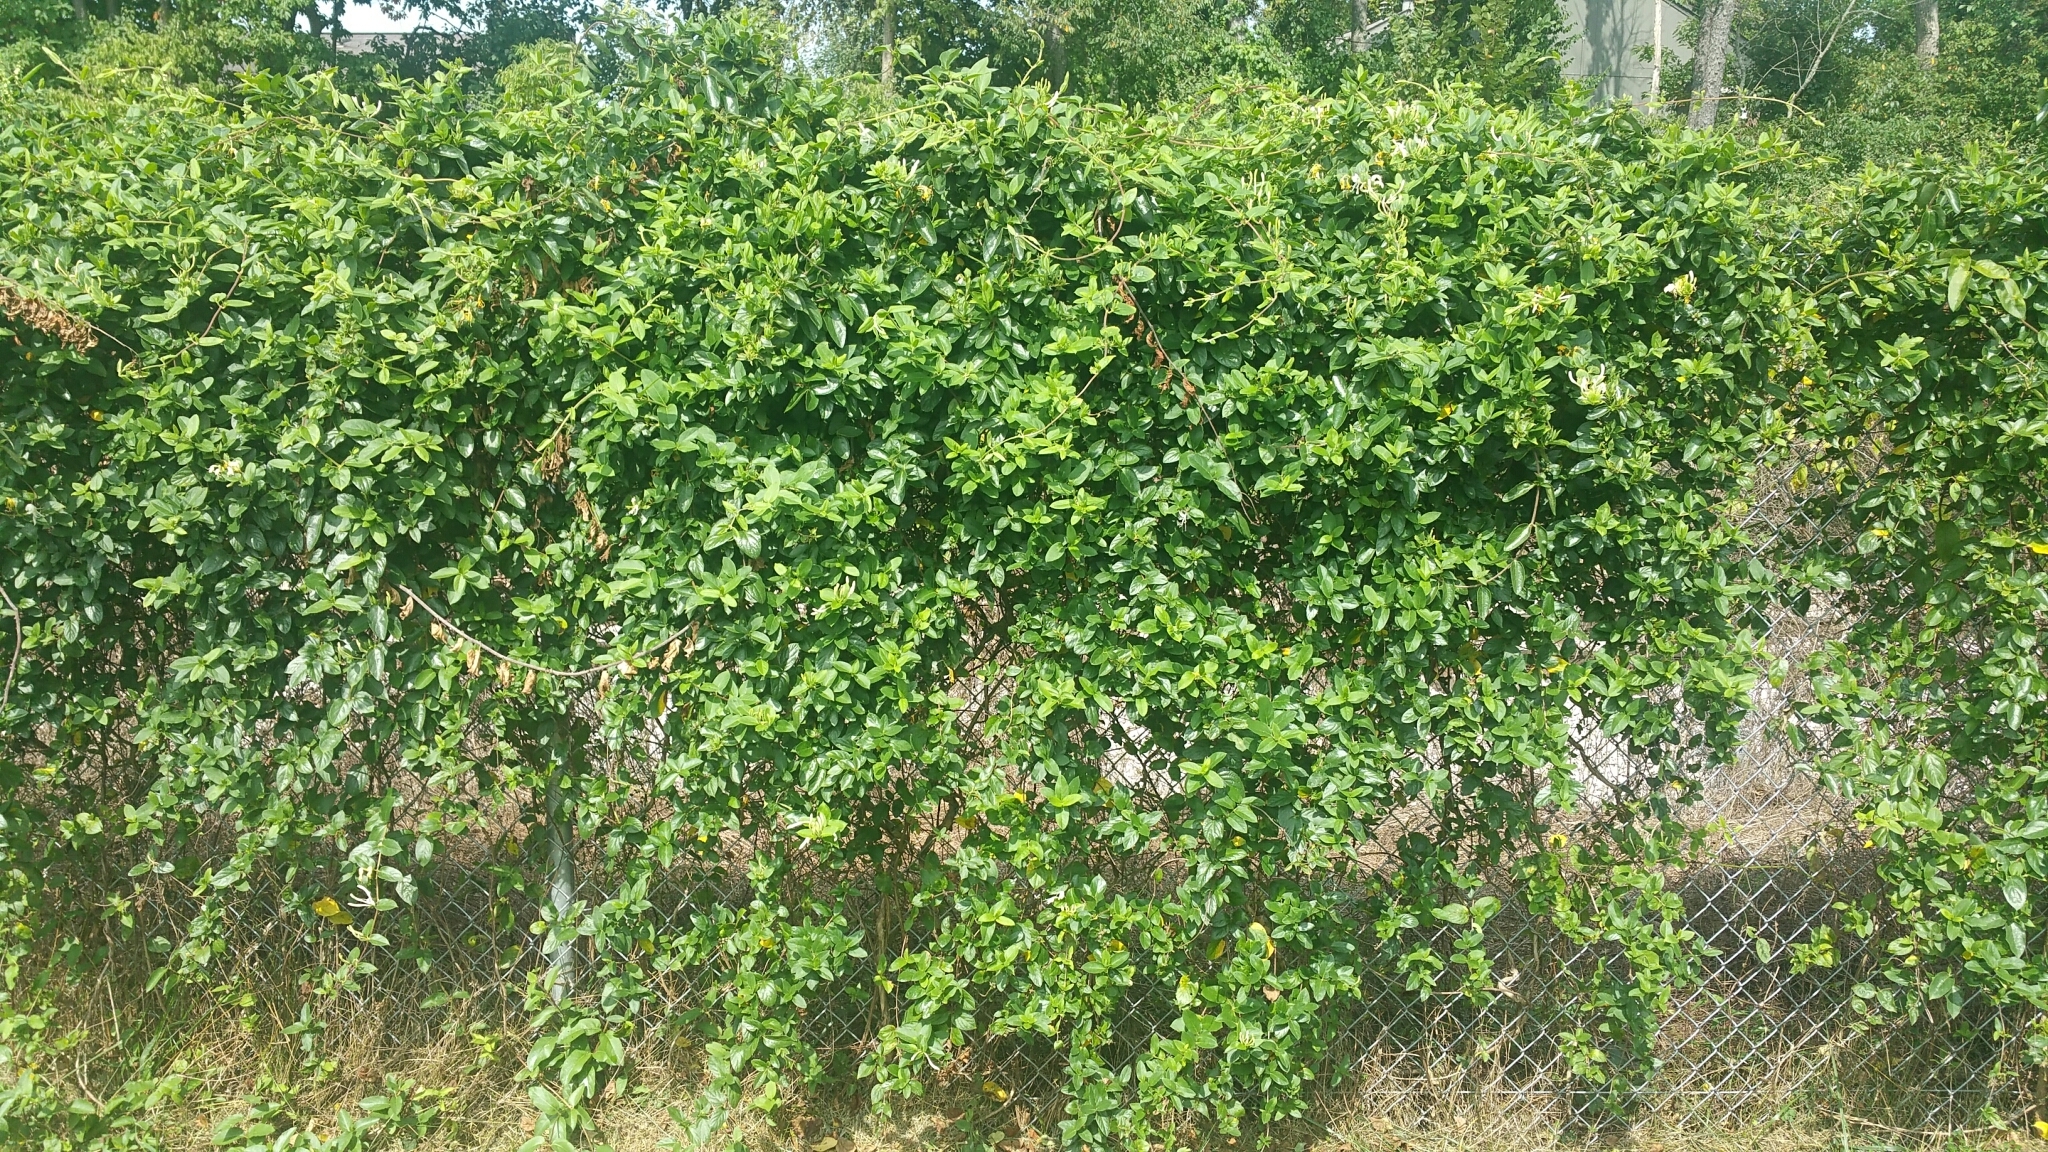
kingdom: Plantae
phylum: Tracheophyta
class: Magnoliopsida
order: Dipsacales
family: Caprifoliaceae
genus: Lonicera
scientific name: Lonicera japonica
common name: Japanese honeysuckle
